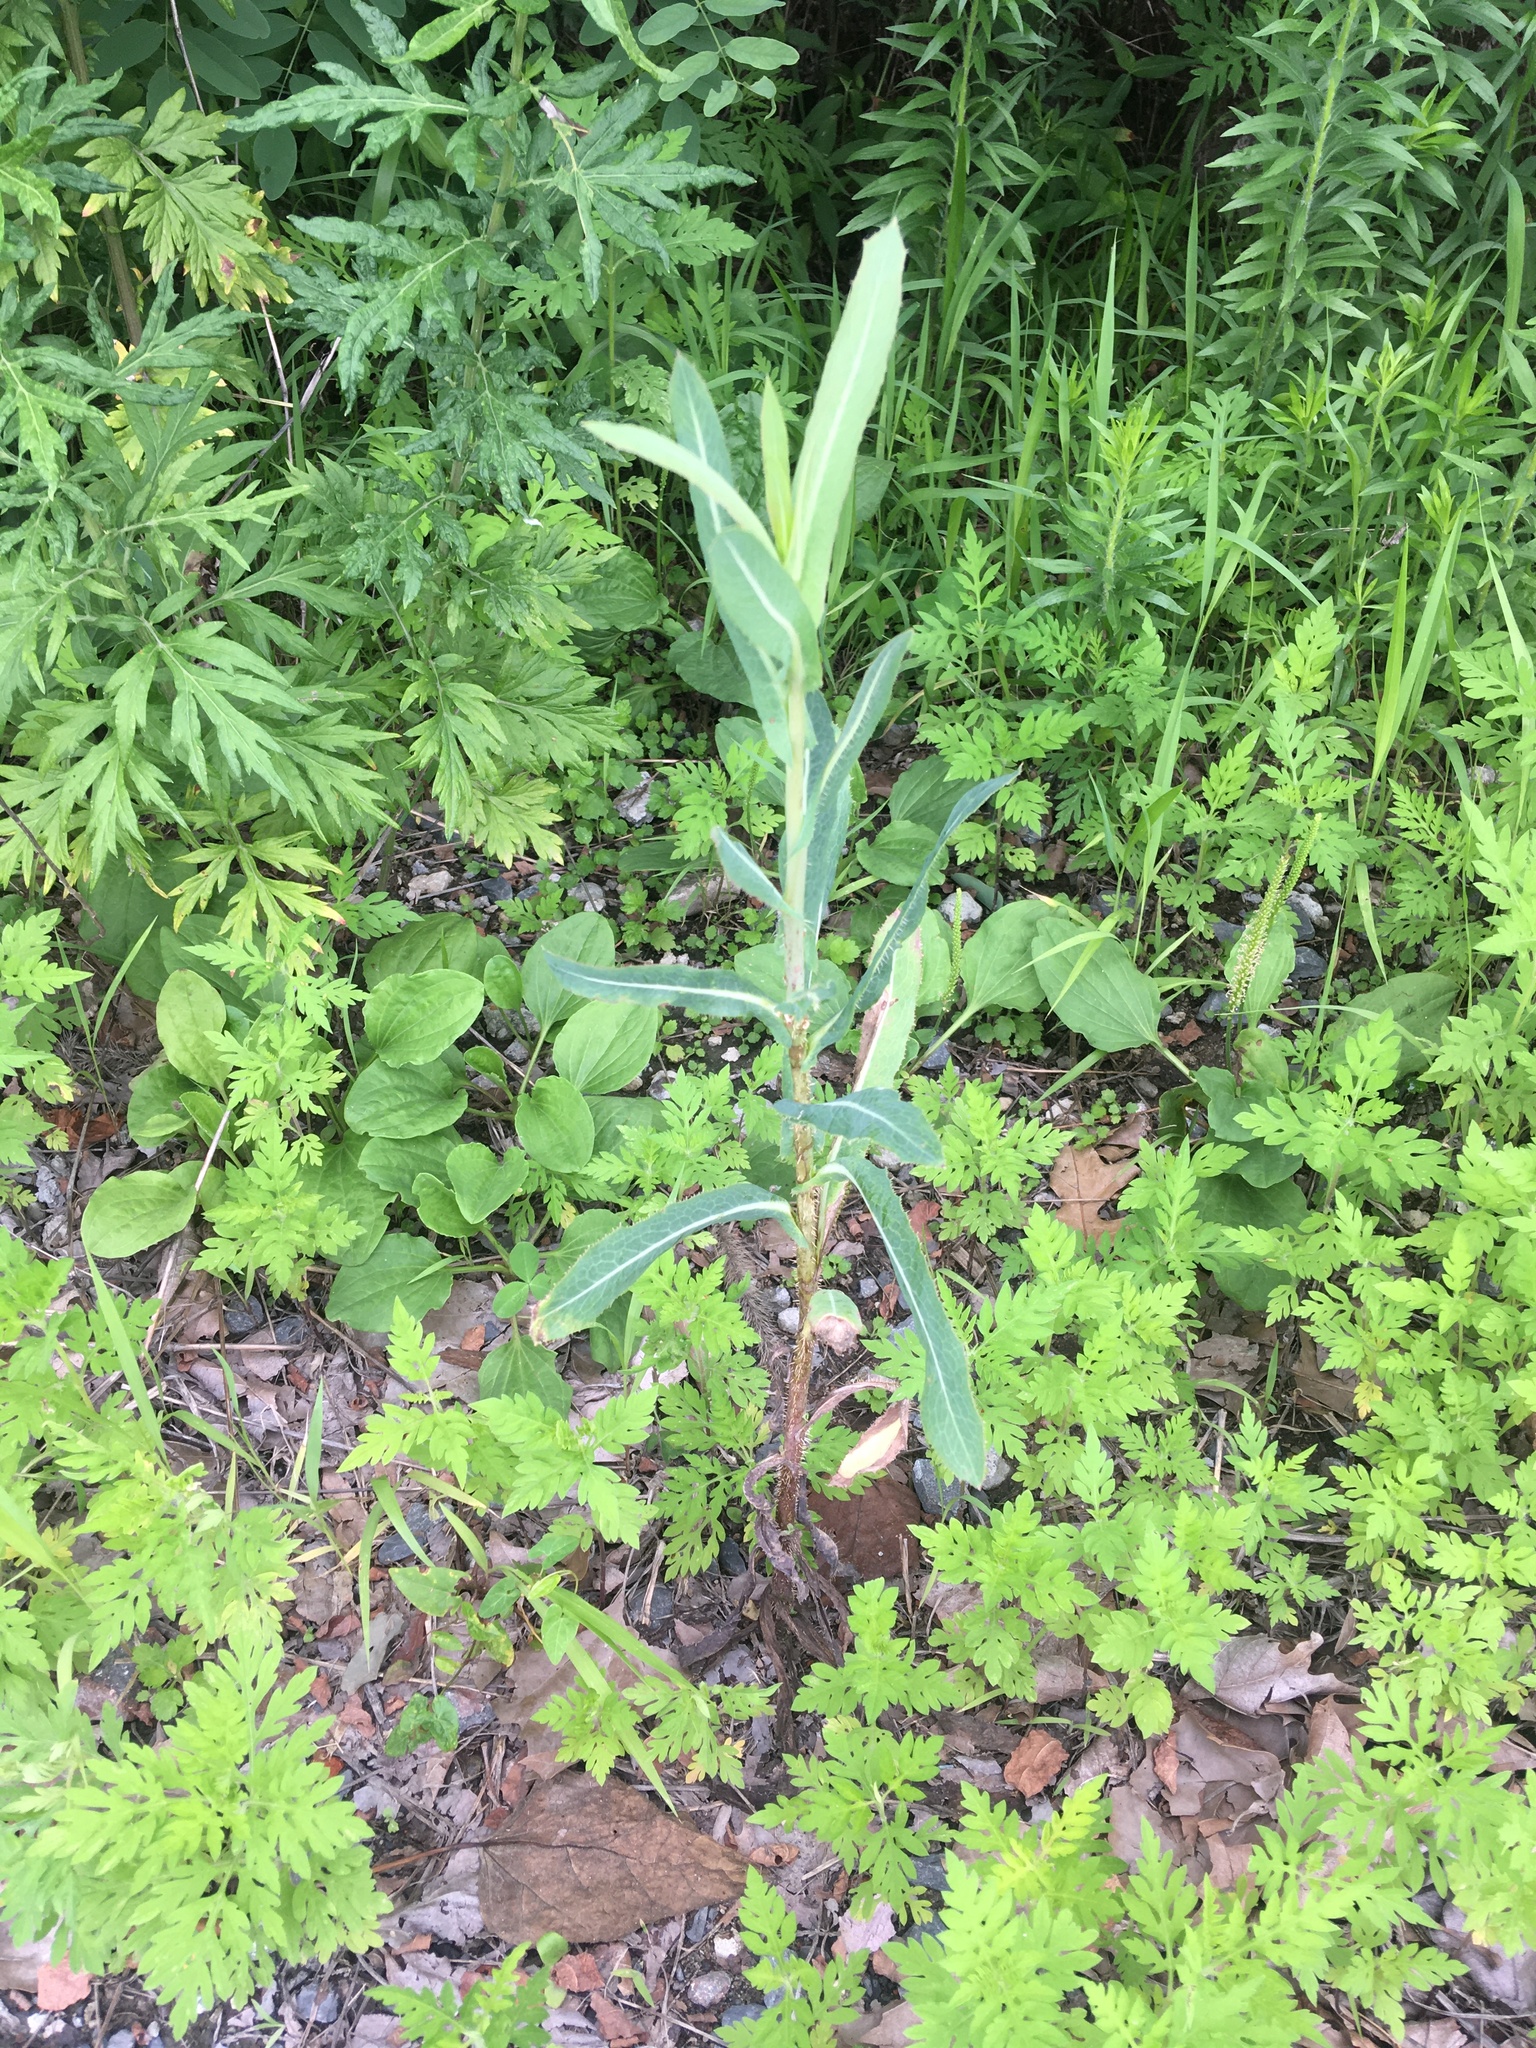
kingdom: Plantae
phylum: Tracheophyta
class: Magnoliopsida
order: Asterales
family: Asteraceae
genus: Lactuca
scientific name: Lactuca serriola
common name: Prickly lettuce
